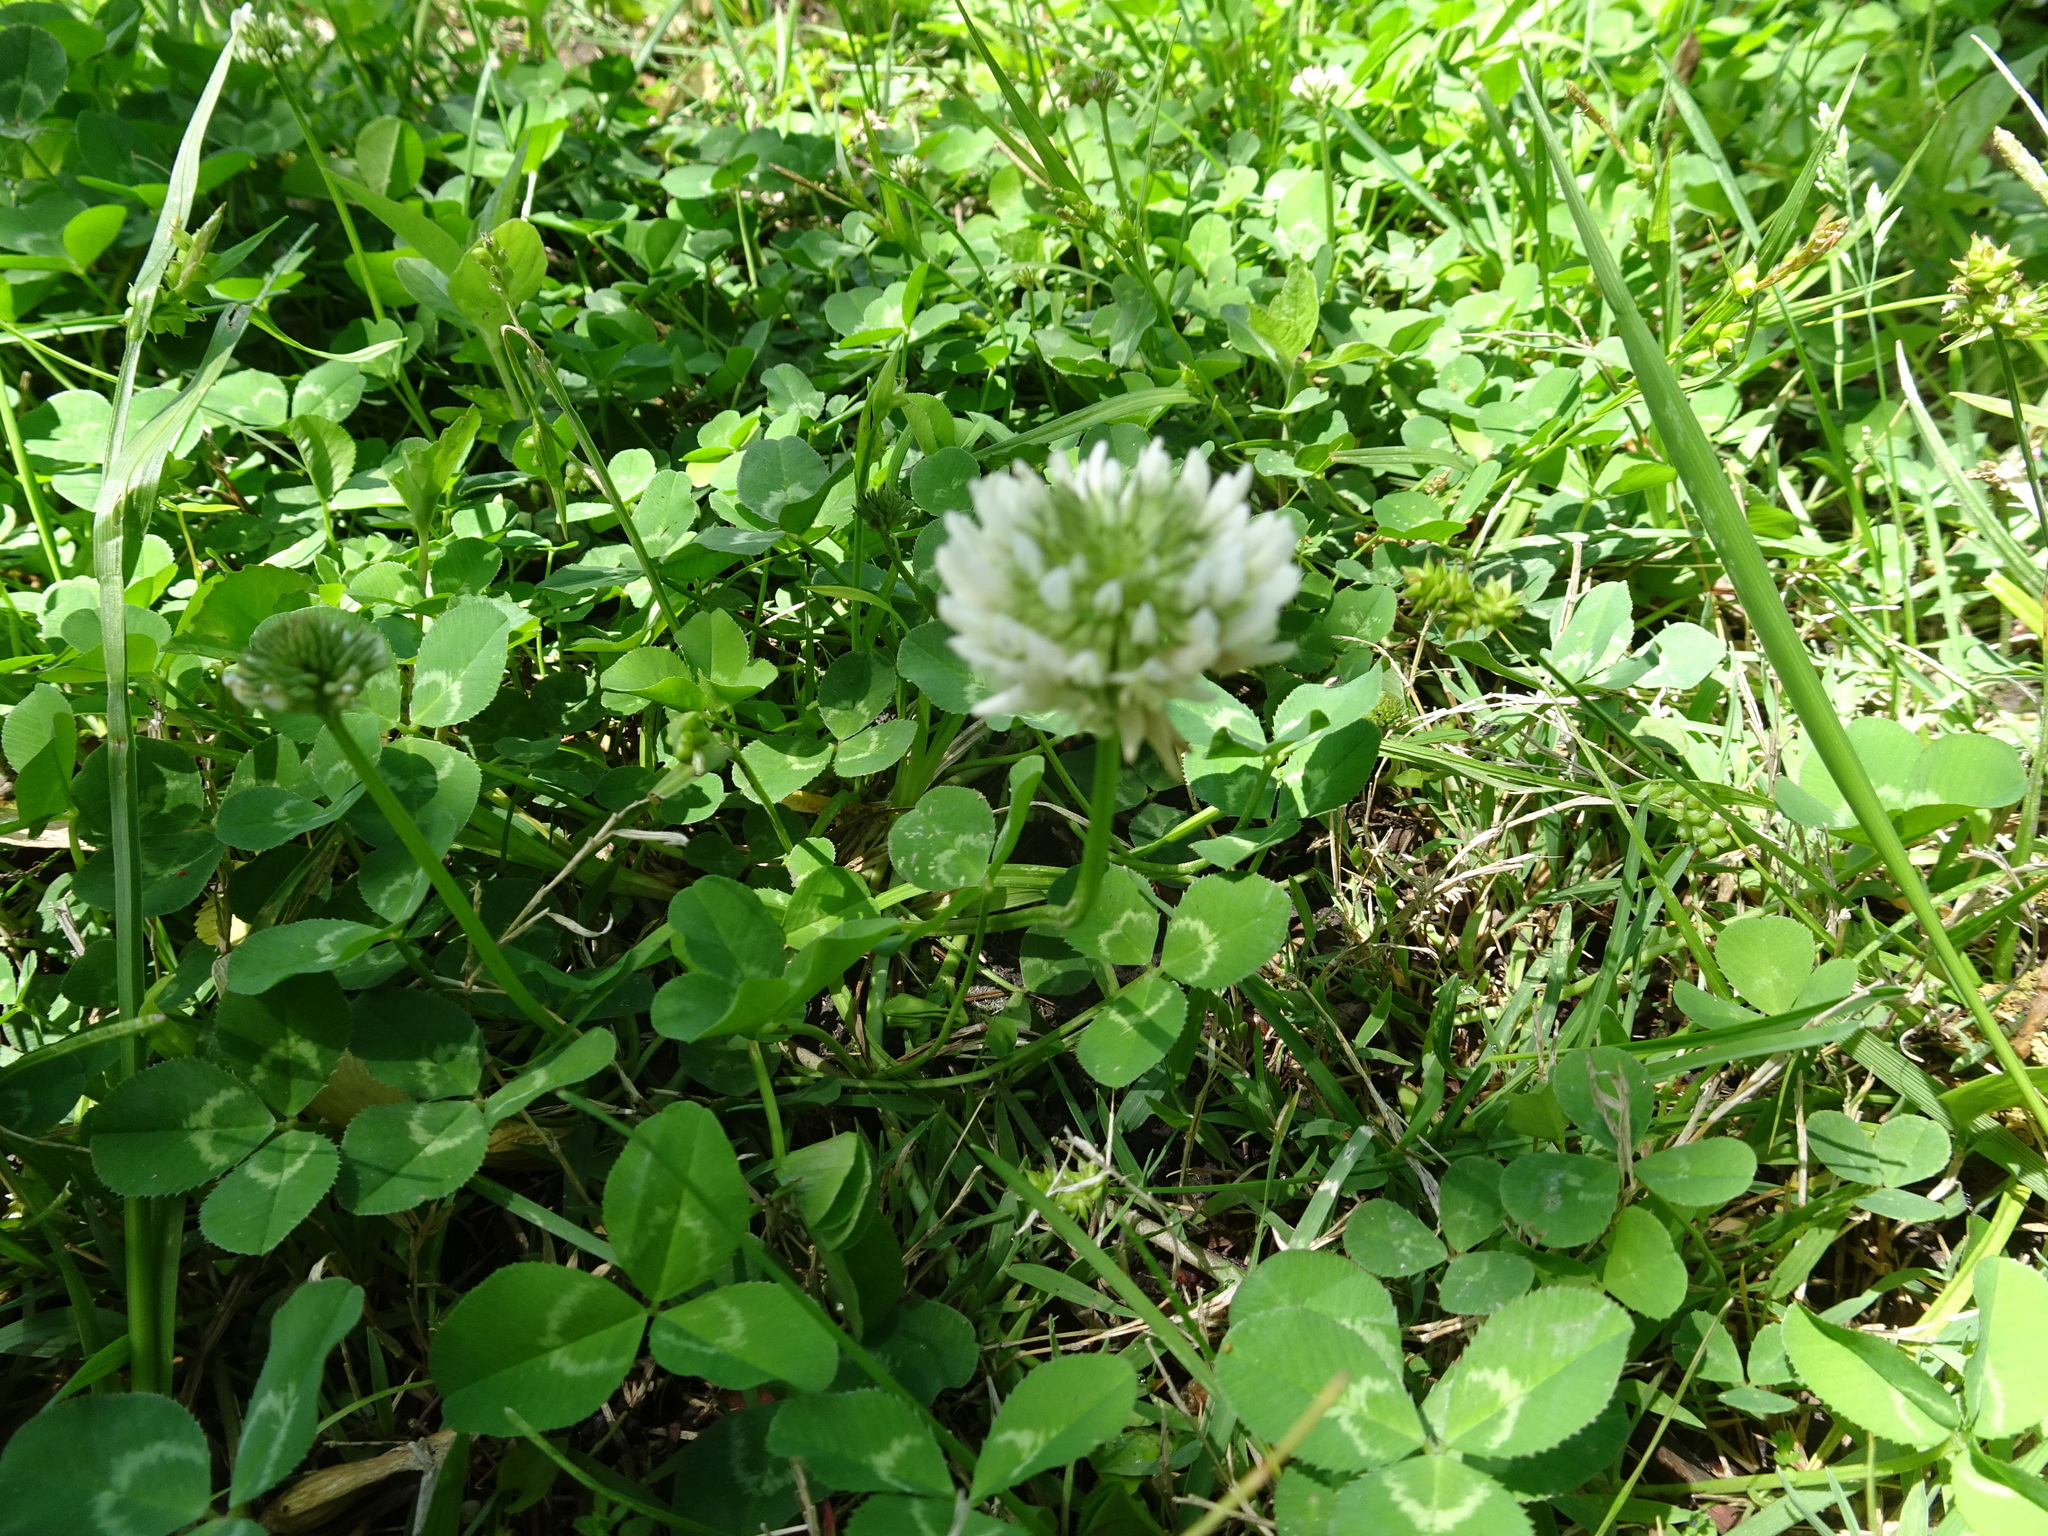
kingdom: Plantae
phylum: Tracheophyta
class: Magnoliopsida
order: Fabales
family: Fabaceae
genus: Trifolium
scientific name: Trifolium repens
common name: White clover
